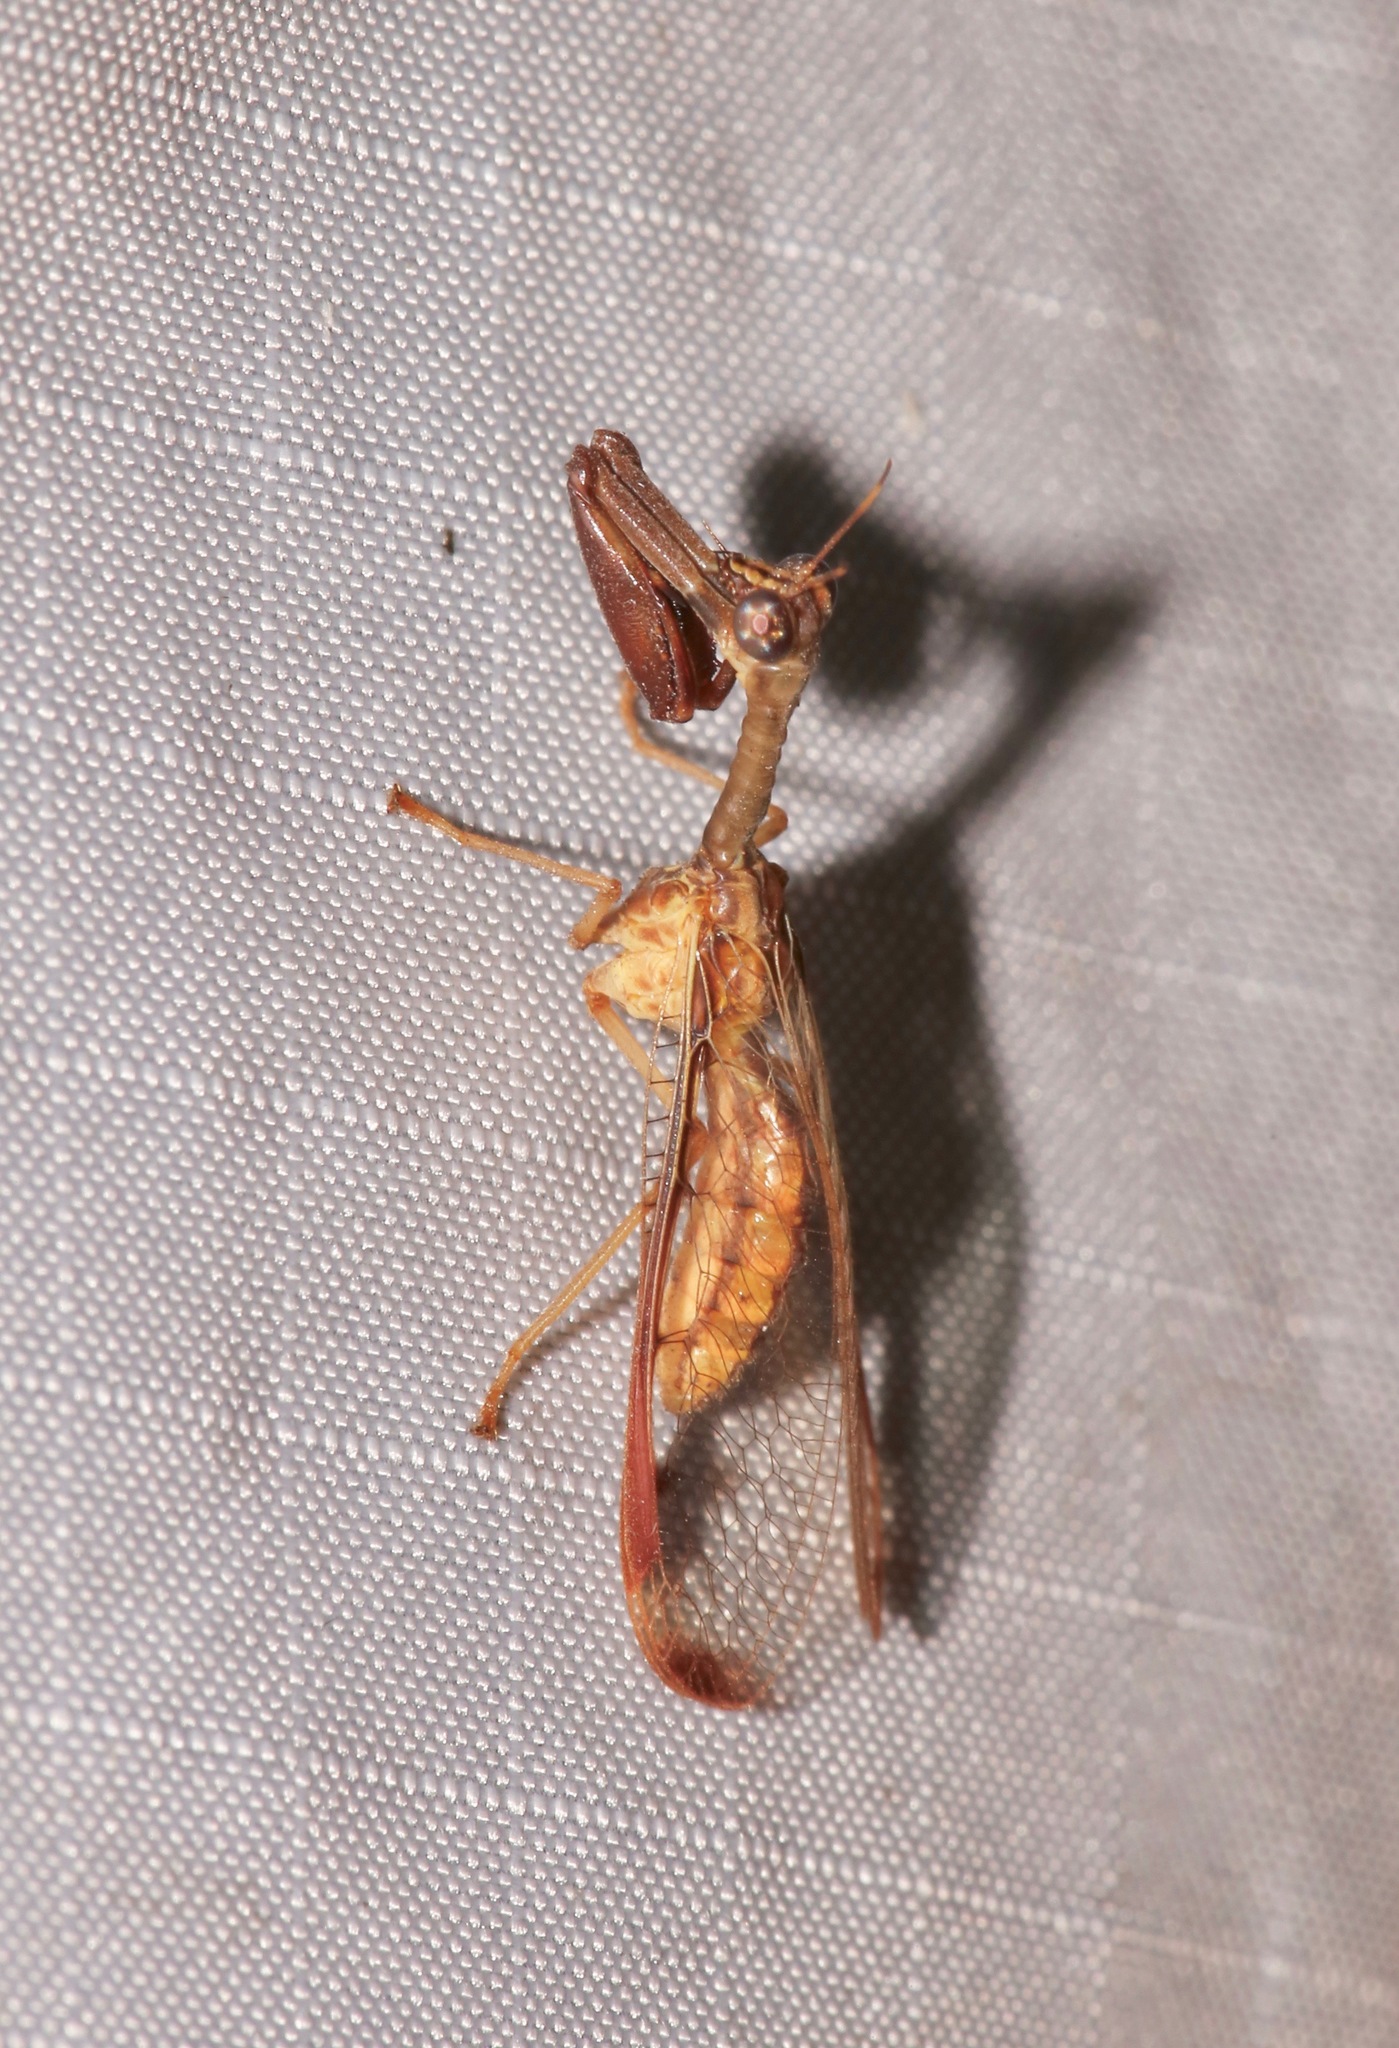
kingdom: Animalia
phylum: Arthropoda
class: Insecta
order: Neuroptera
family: Mantispidae
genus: Dicromantispa
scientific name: Dicromantispa interrupta
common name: Four-spotted mantidfly
